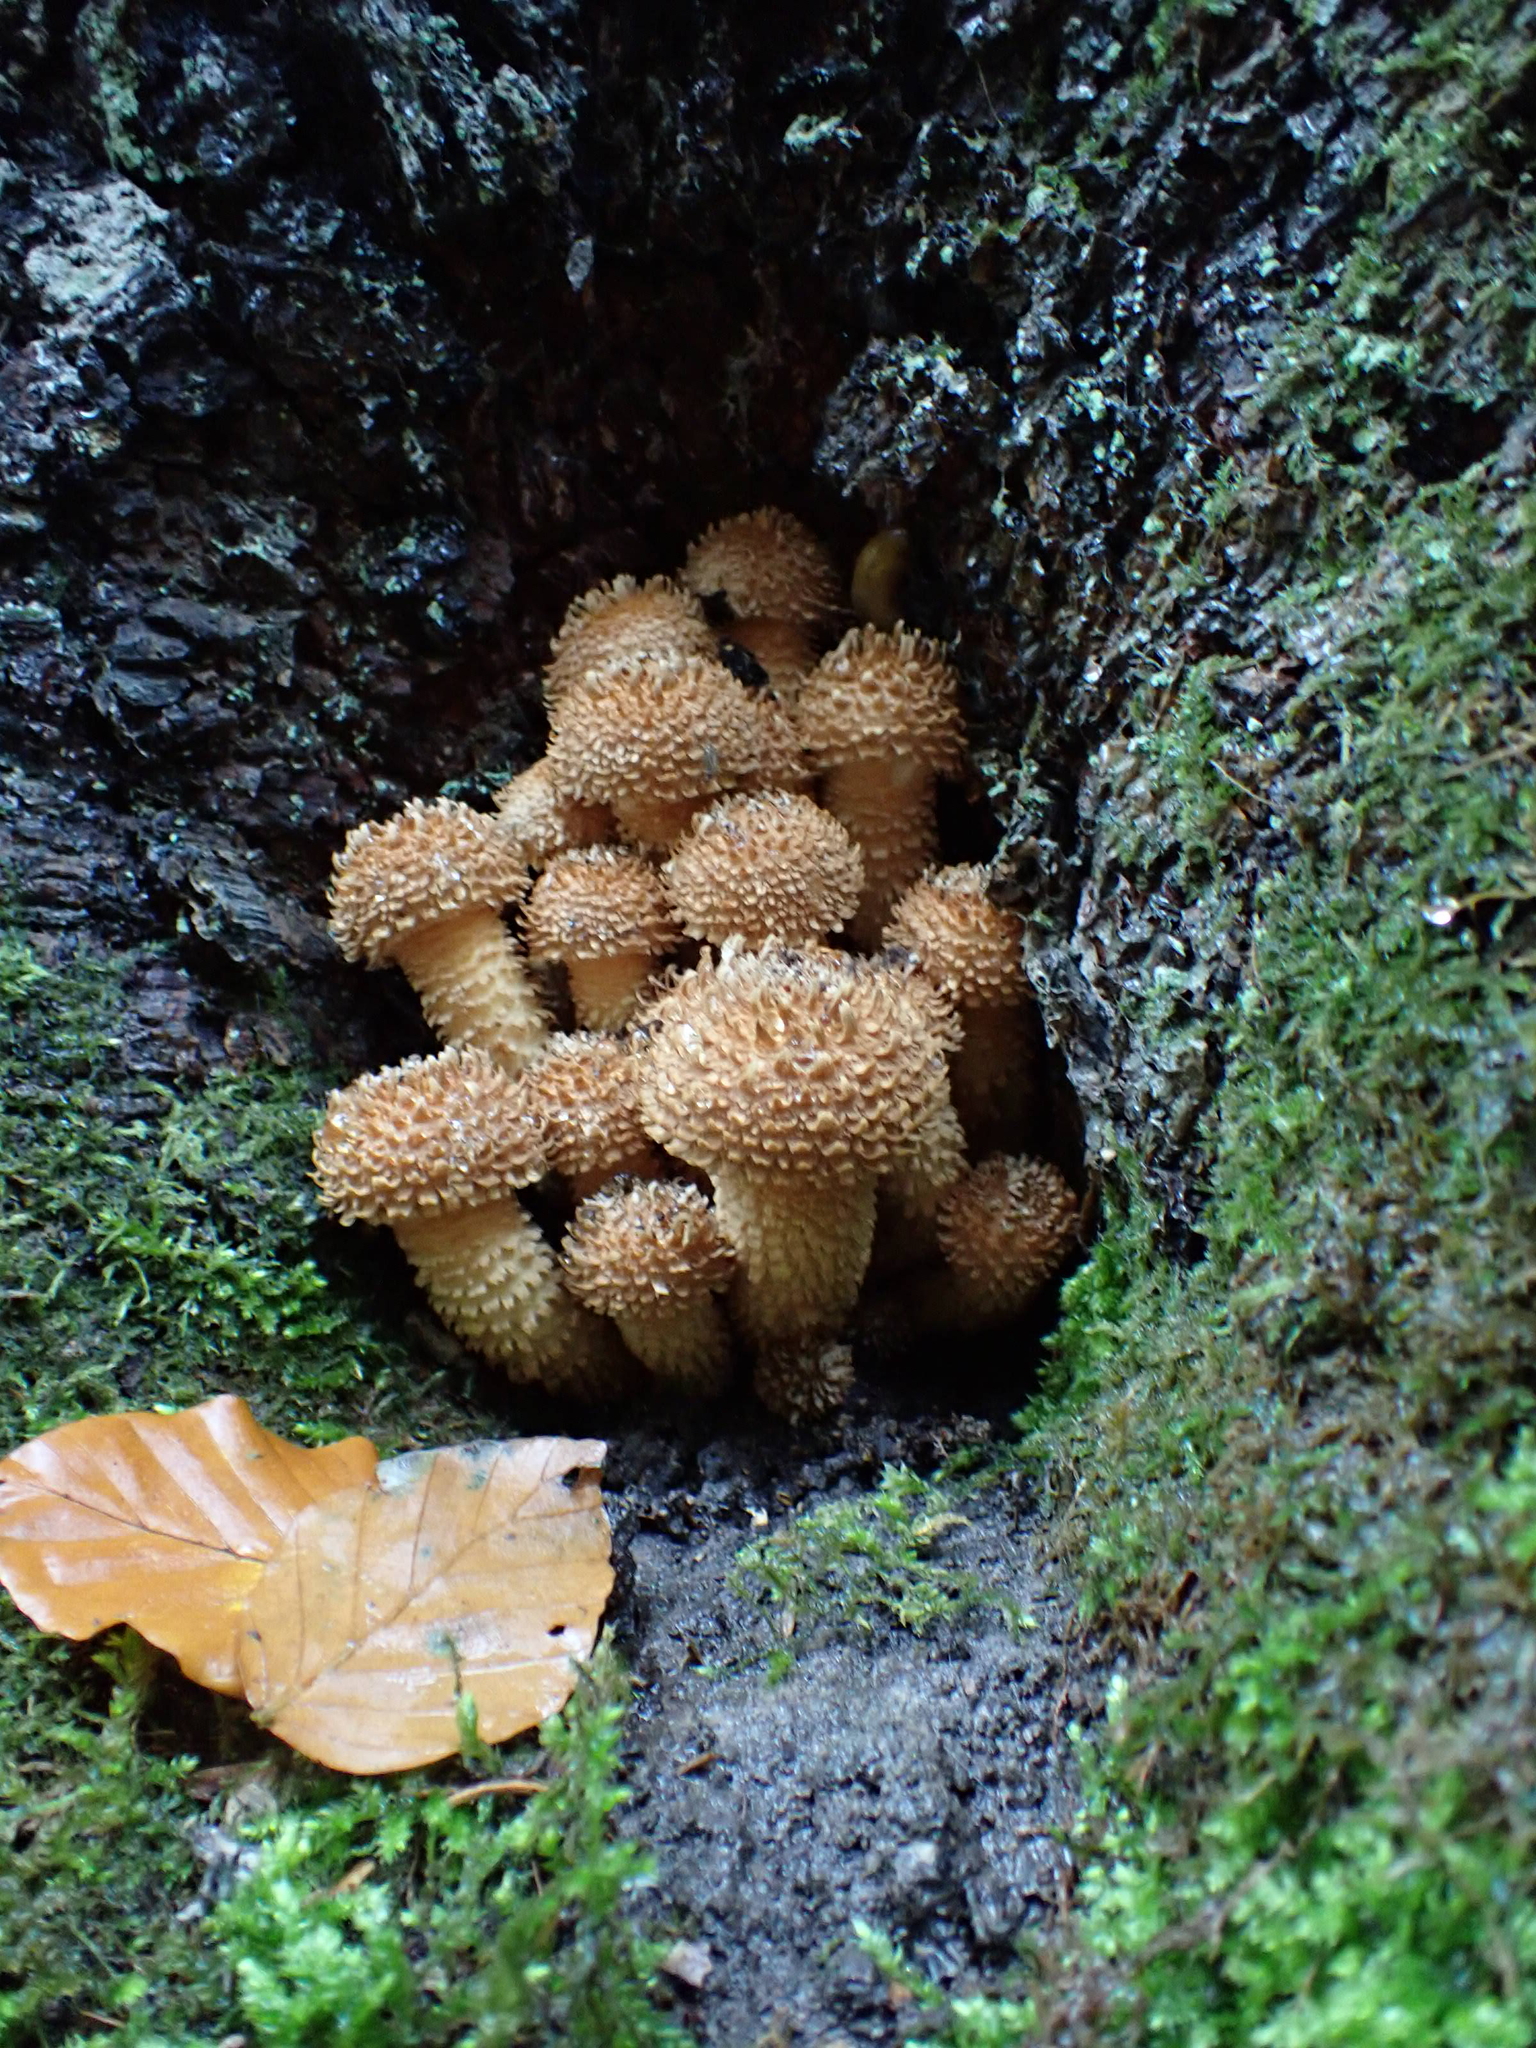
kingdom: Fungi
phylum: Basidiomycota
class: Agaricomycetes
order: Agaricales
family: Strophariaceae
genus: Pholiota
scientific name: Pholiota squarrosa
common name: Shaggy pholiota
